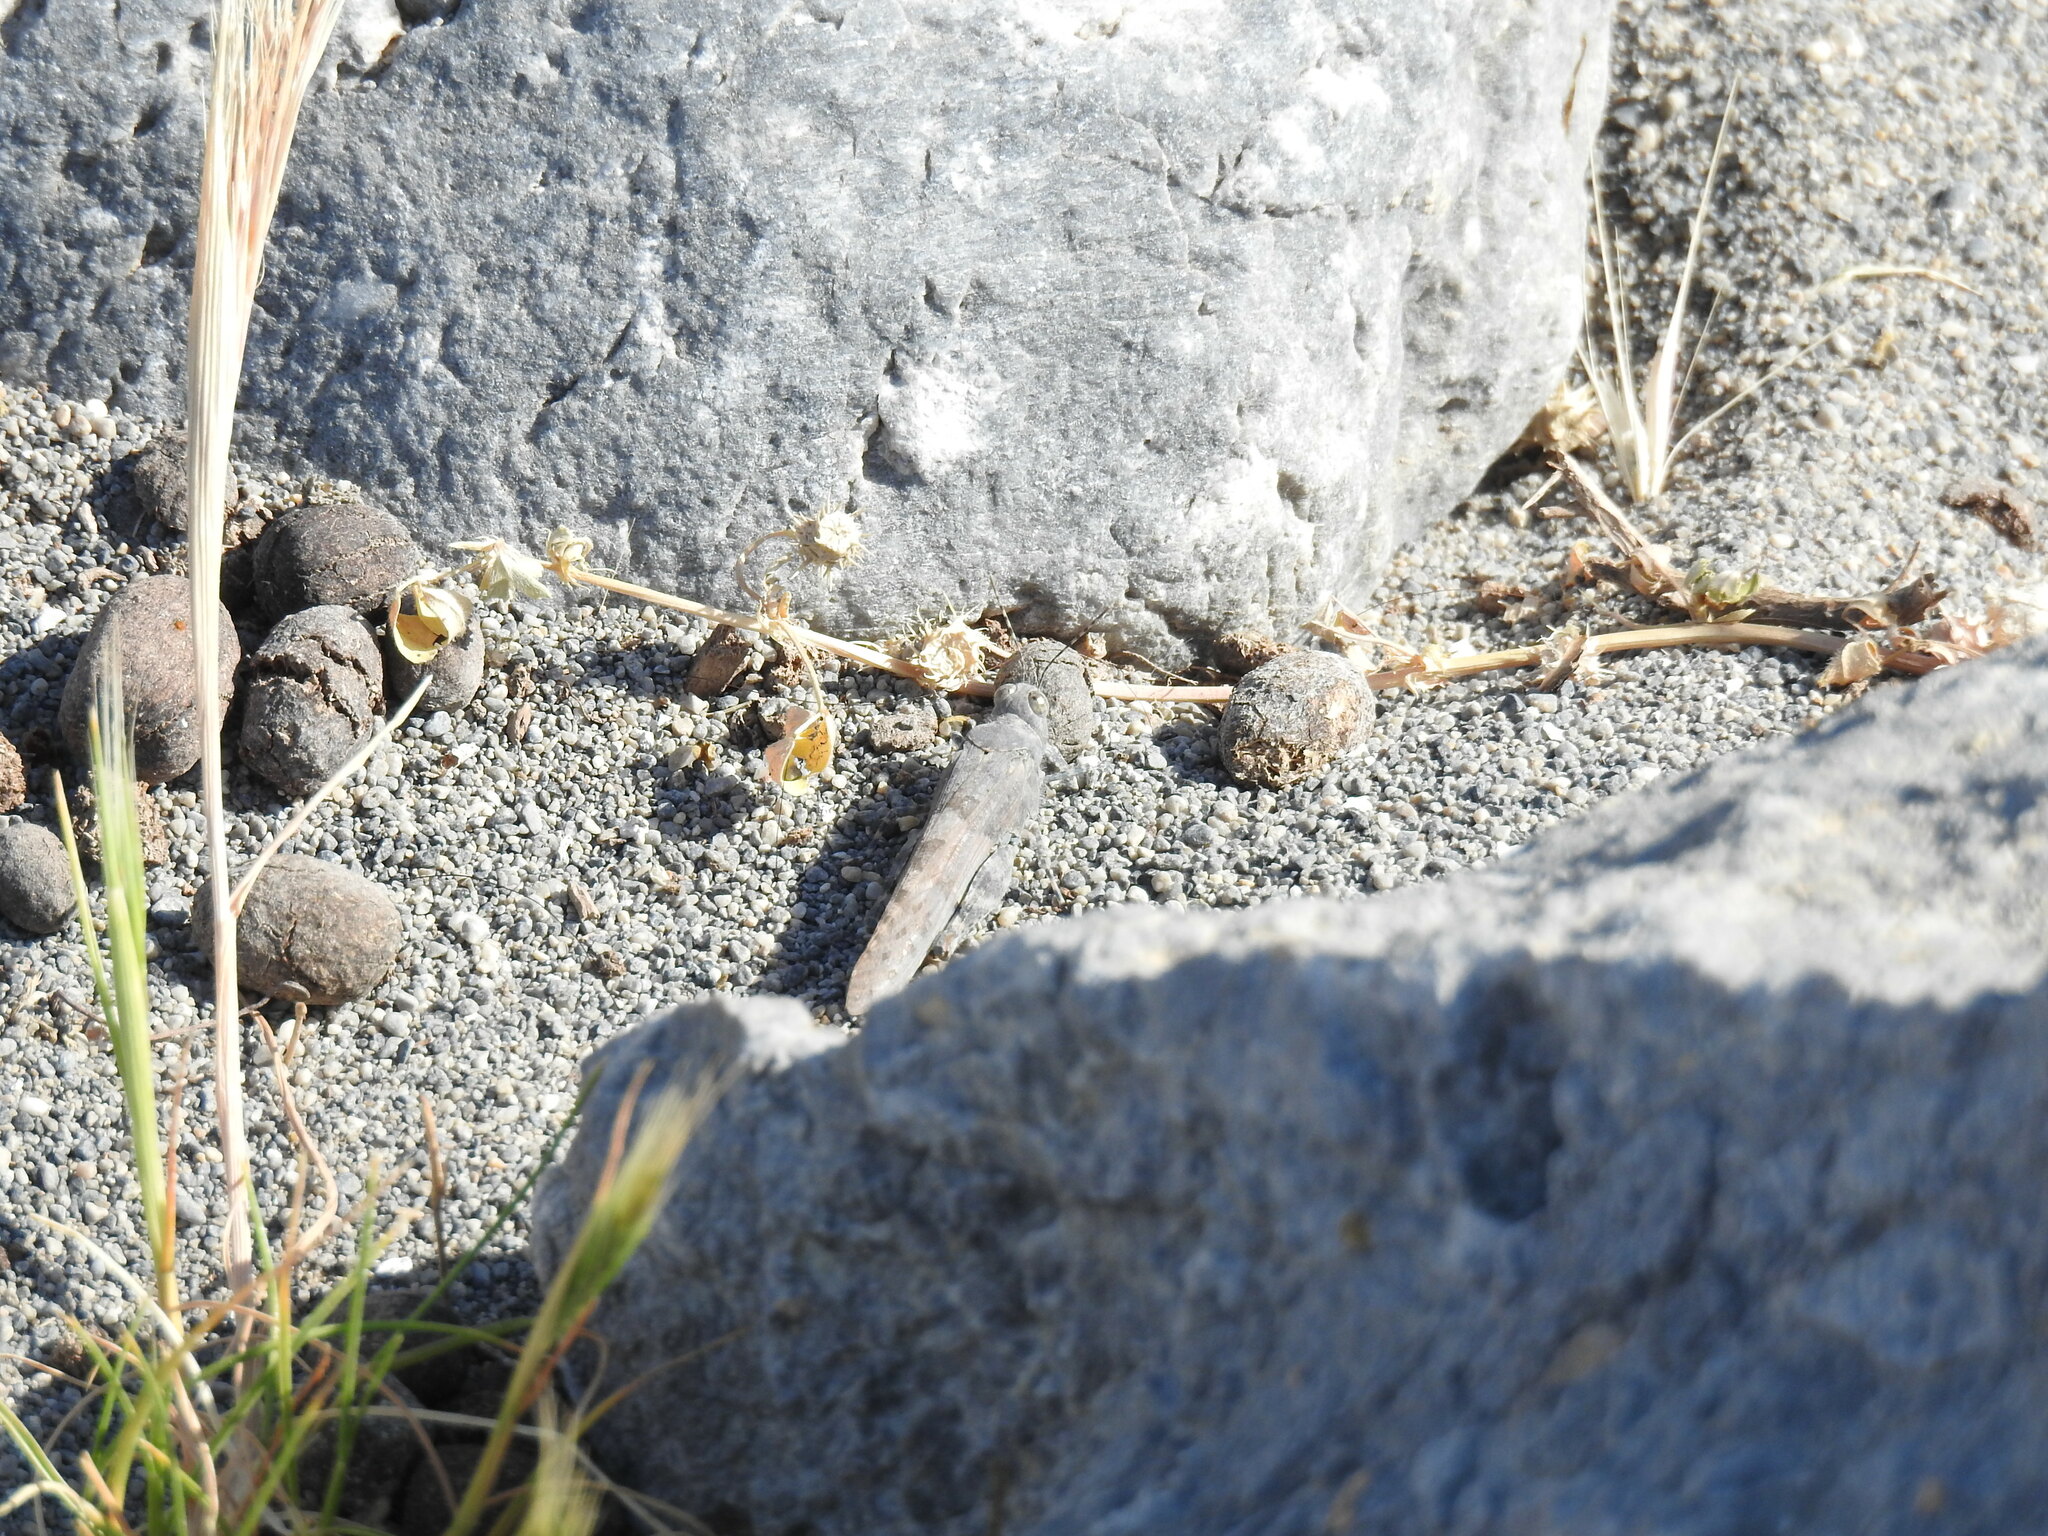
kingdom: Animalia
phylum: Arthropoda
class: Insecta
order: Orthoptera
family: Acrididae
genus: Sphingonotus
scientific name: Sphingonotus rubescens
